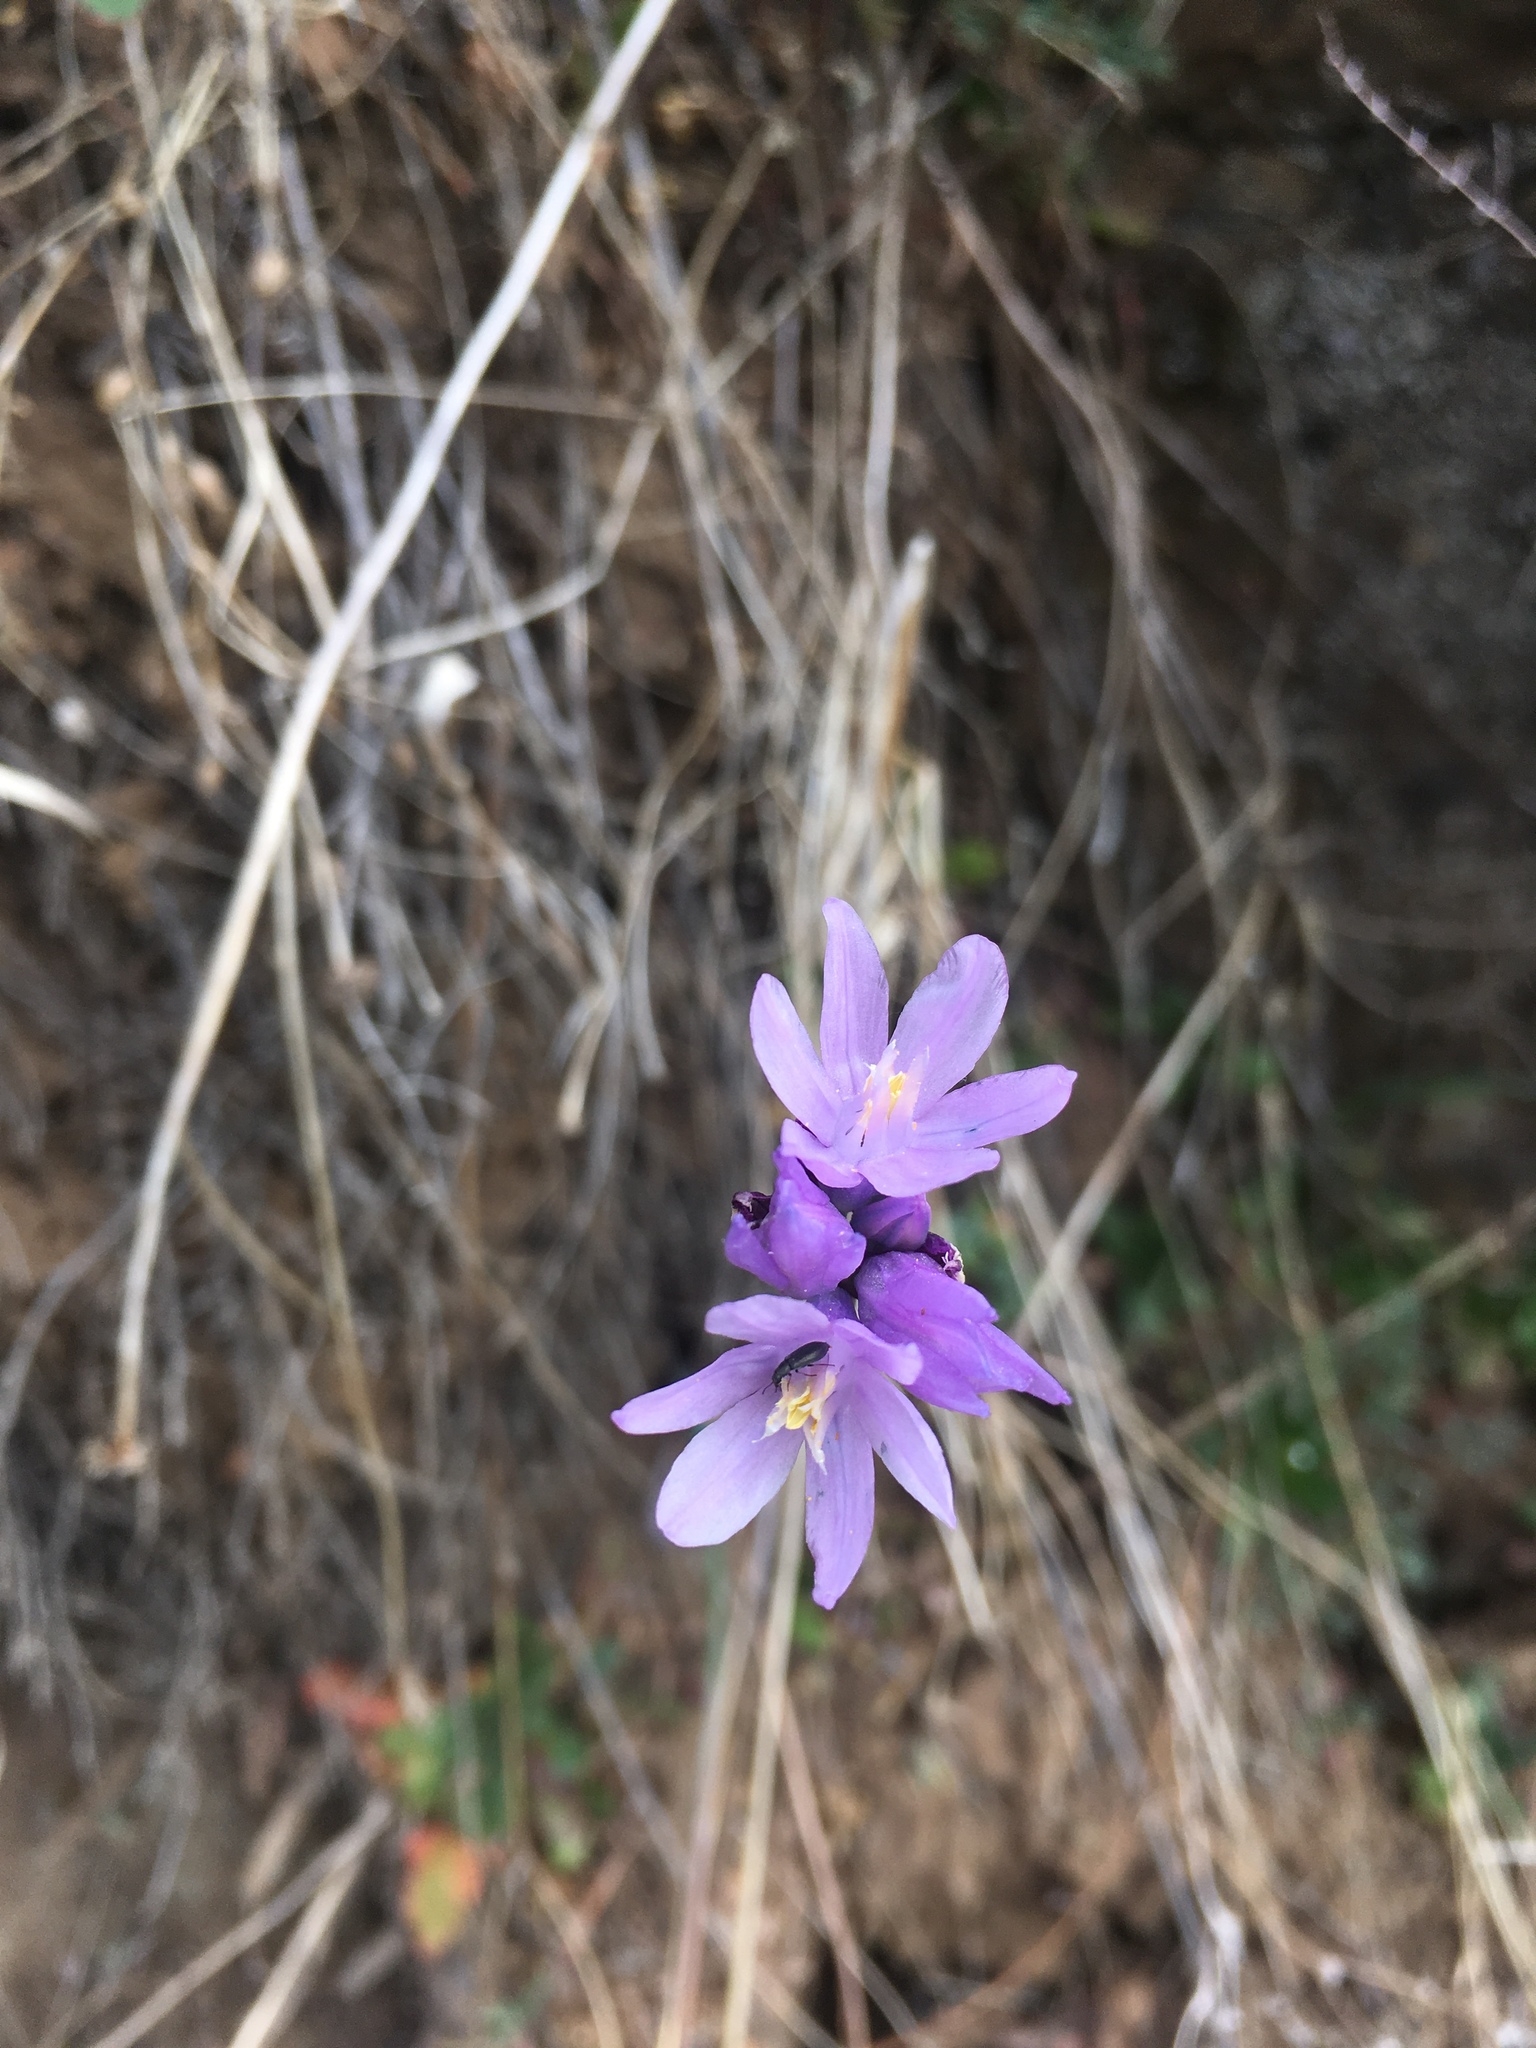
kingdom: Plantae
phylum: Tracheophyta
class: Liliopsida
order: Asparagales
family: Asparagaceae
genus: Dipterostemon
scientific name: Dipterostemon capitatus
